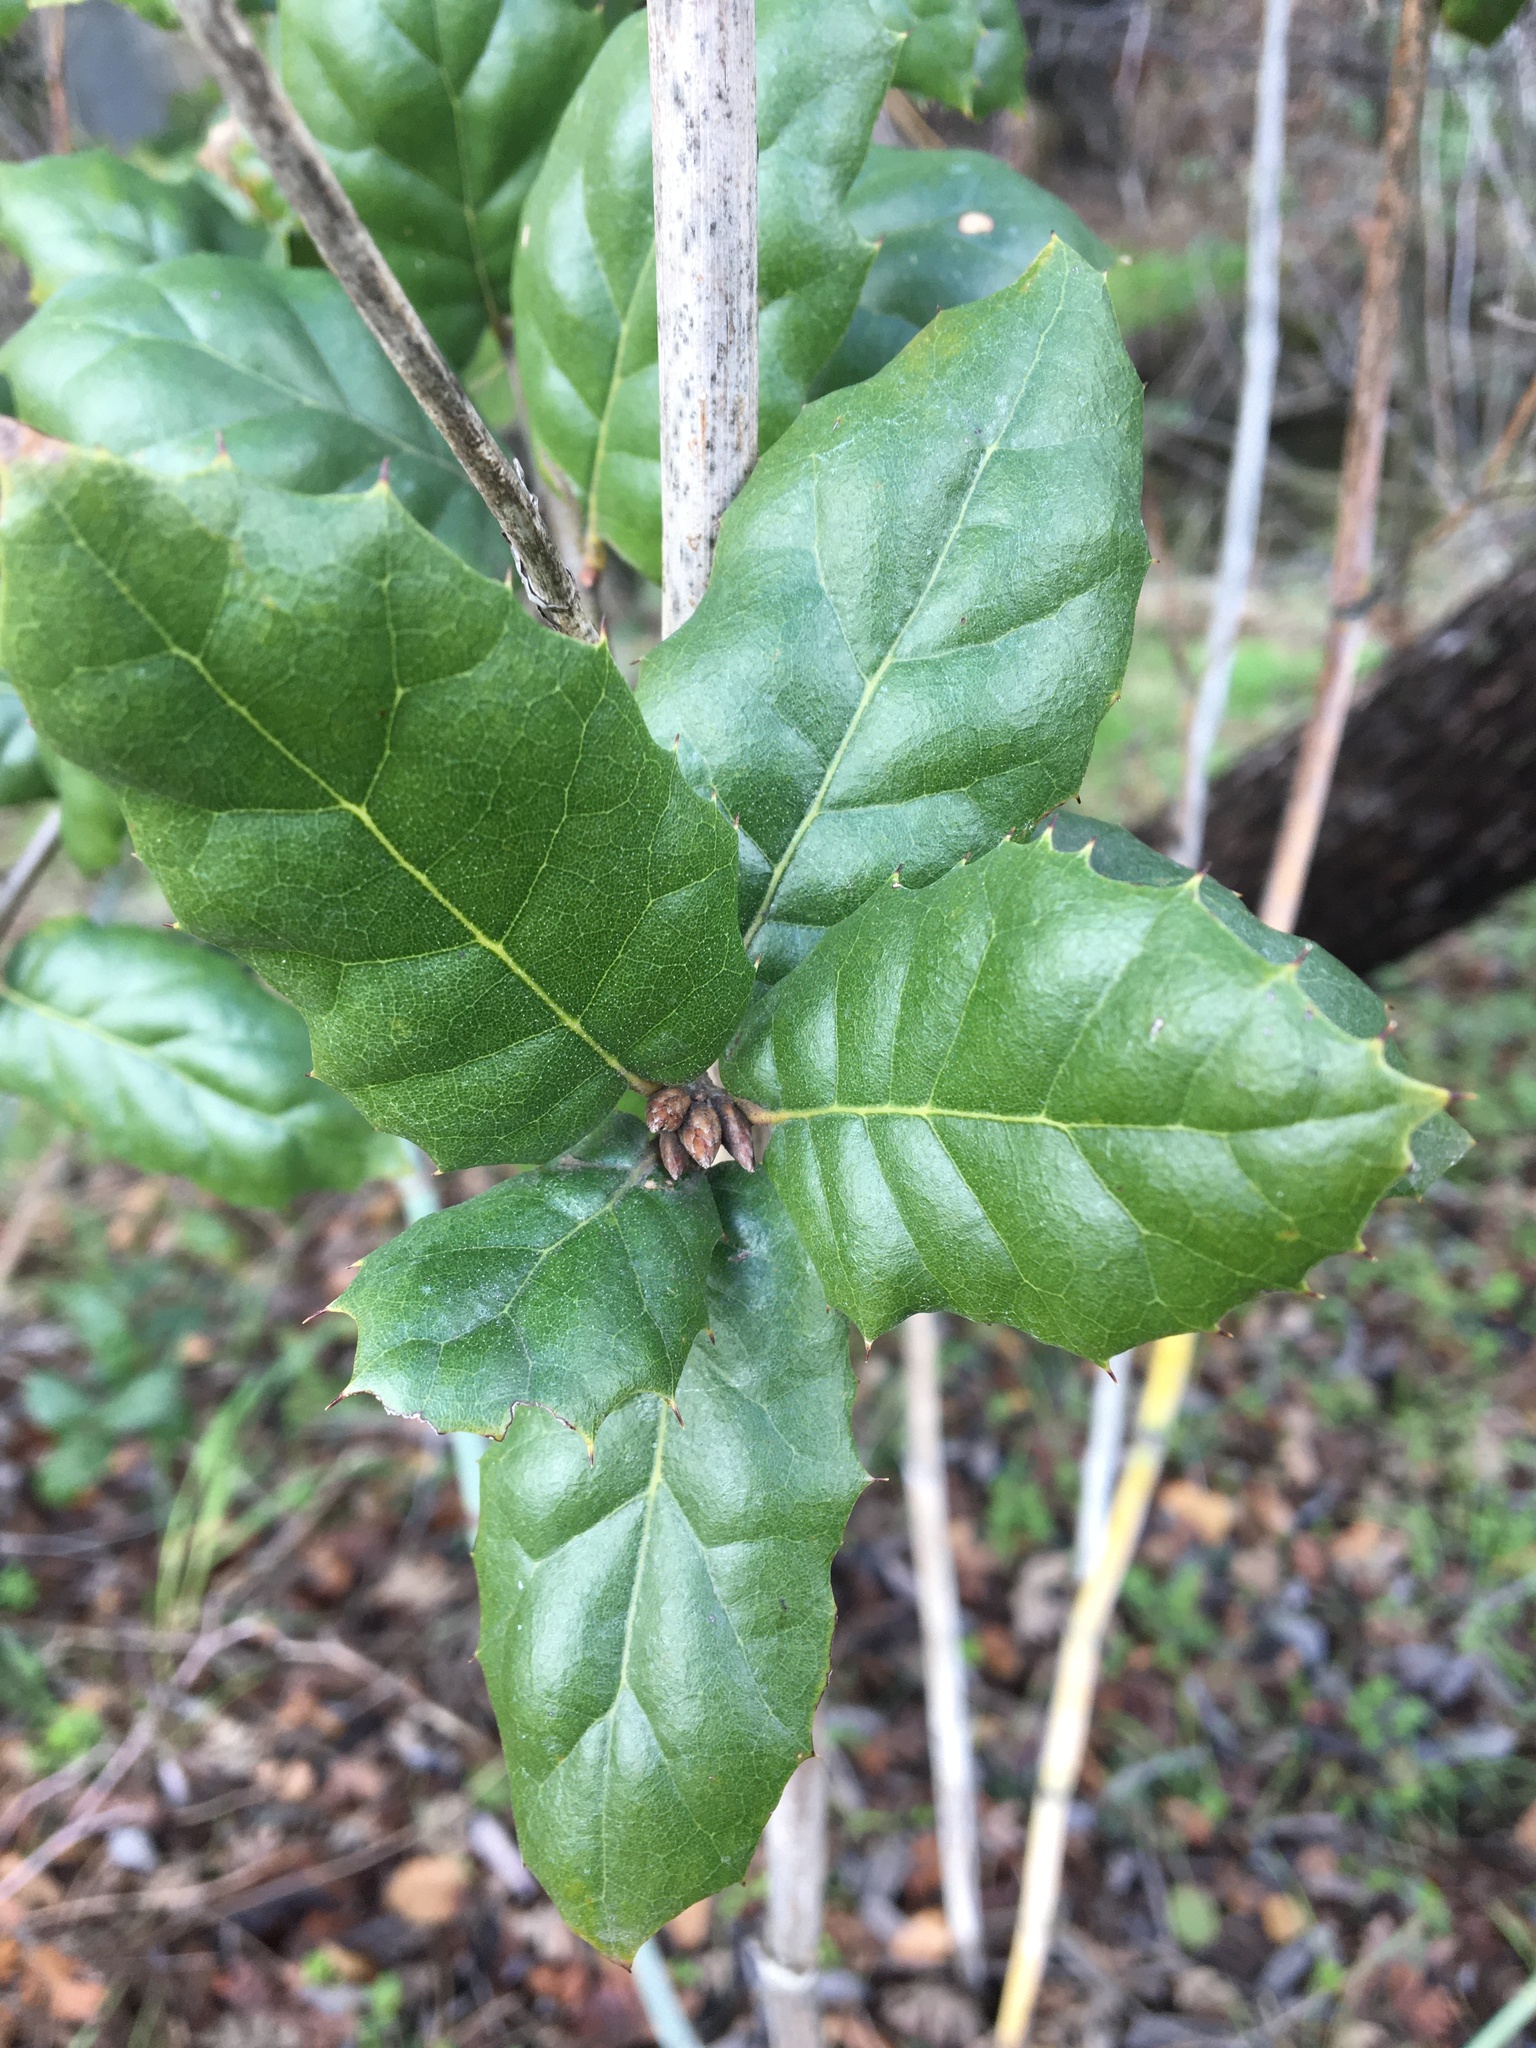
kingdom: Plantae
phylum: Tracheophyta
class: Magnoliopsida
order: Fagales
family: Fagaceae
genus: Quercus
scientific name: Quercus agrifolia
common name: California live oak
